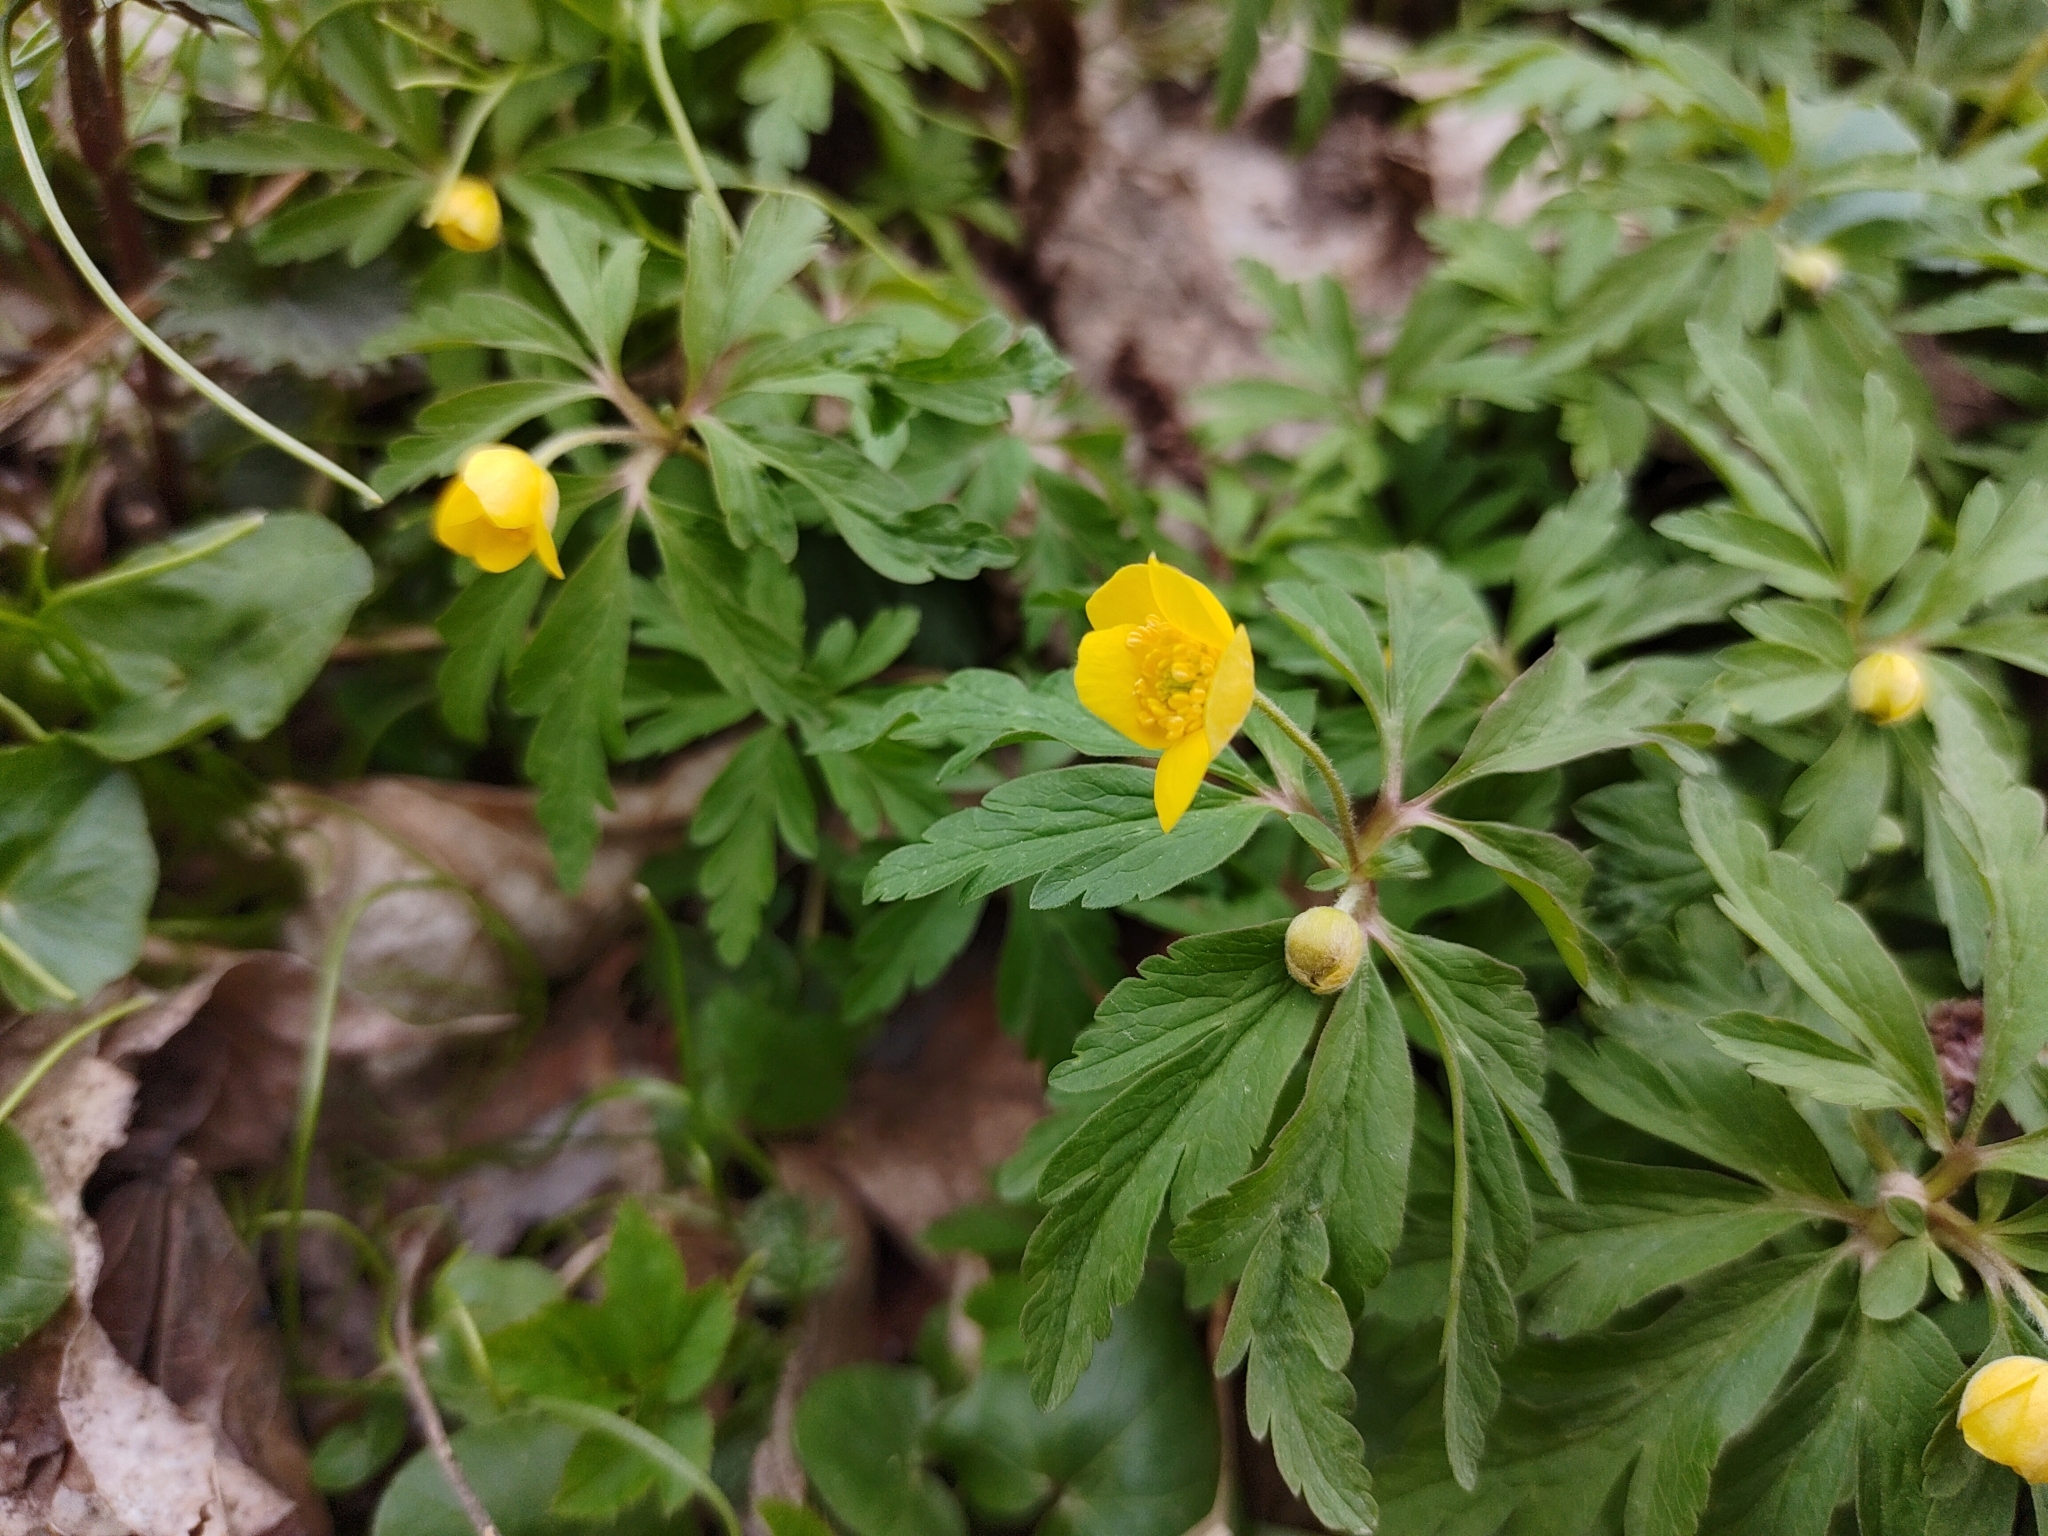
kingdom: Plantae
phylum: Tracheophyta
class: Magnoliopsida
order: Ranunculales
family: Ranunculaceae
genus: Anemone
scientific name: Anemone ranunculoides
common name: Yellow anemone
